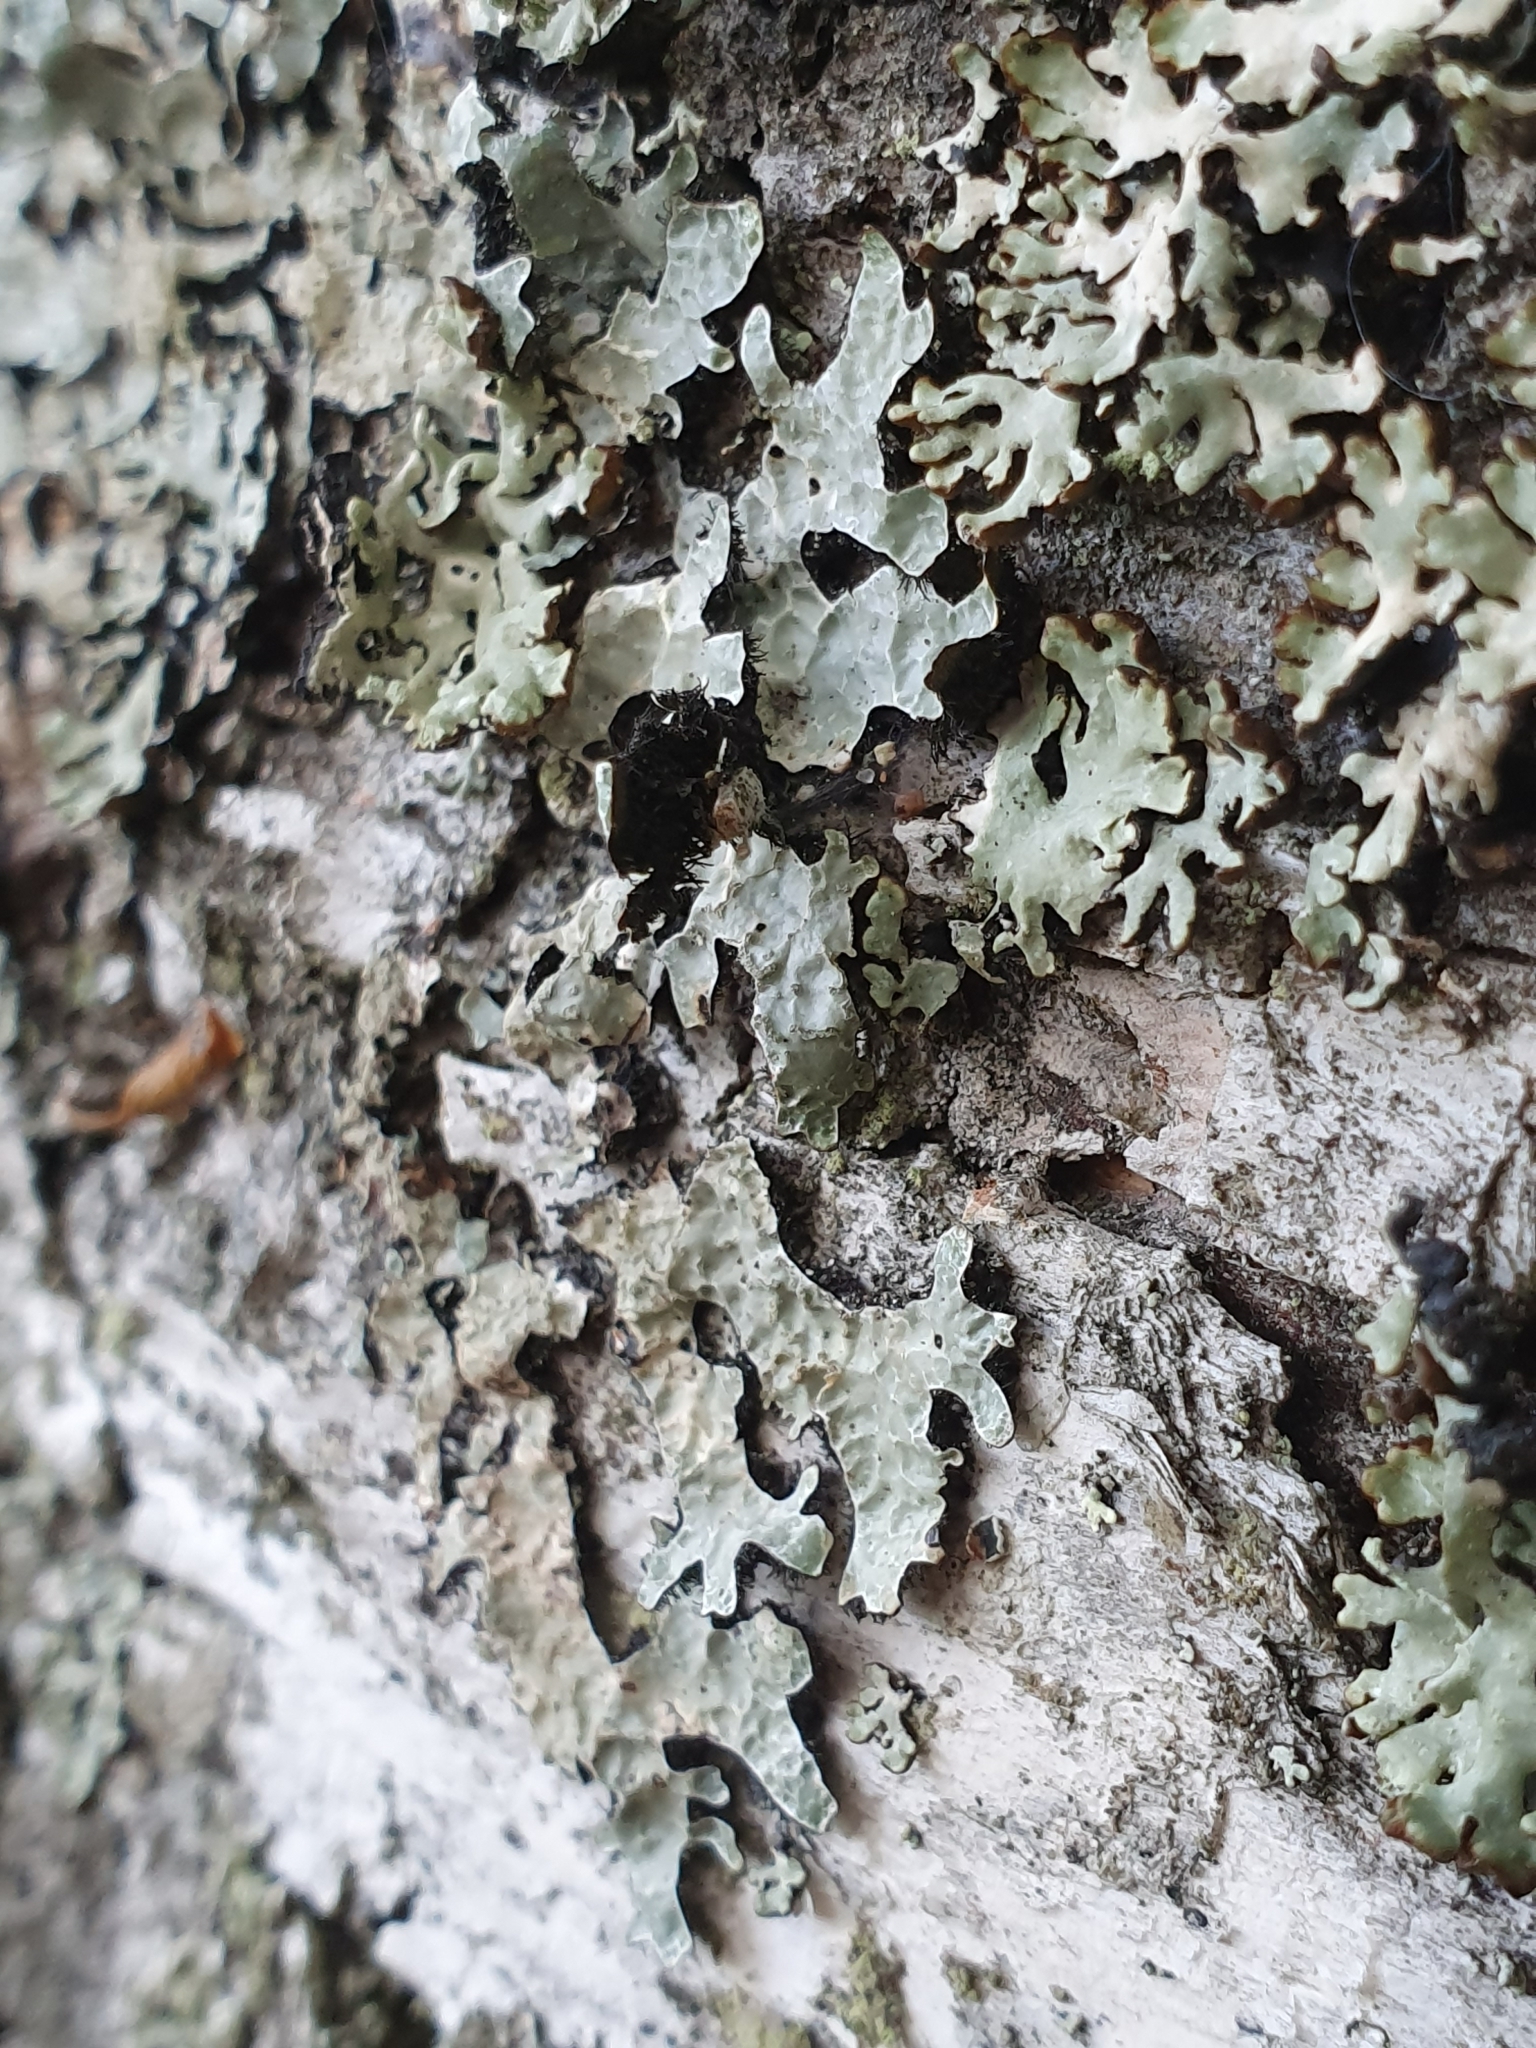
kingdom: Fungi
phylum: Ascomycota
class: Lecanoromycetes
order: Lecanorales
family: Parmeliaceae
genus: Parmelia
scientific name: Parmelia sulcata
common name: Netted shield lichen
